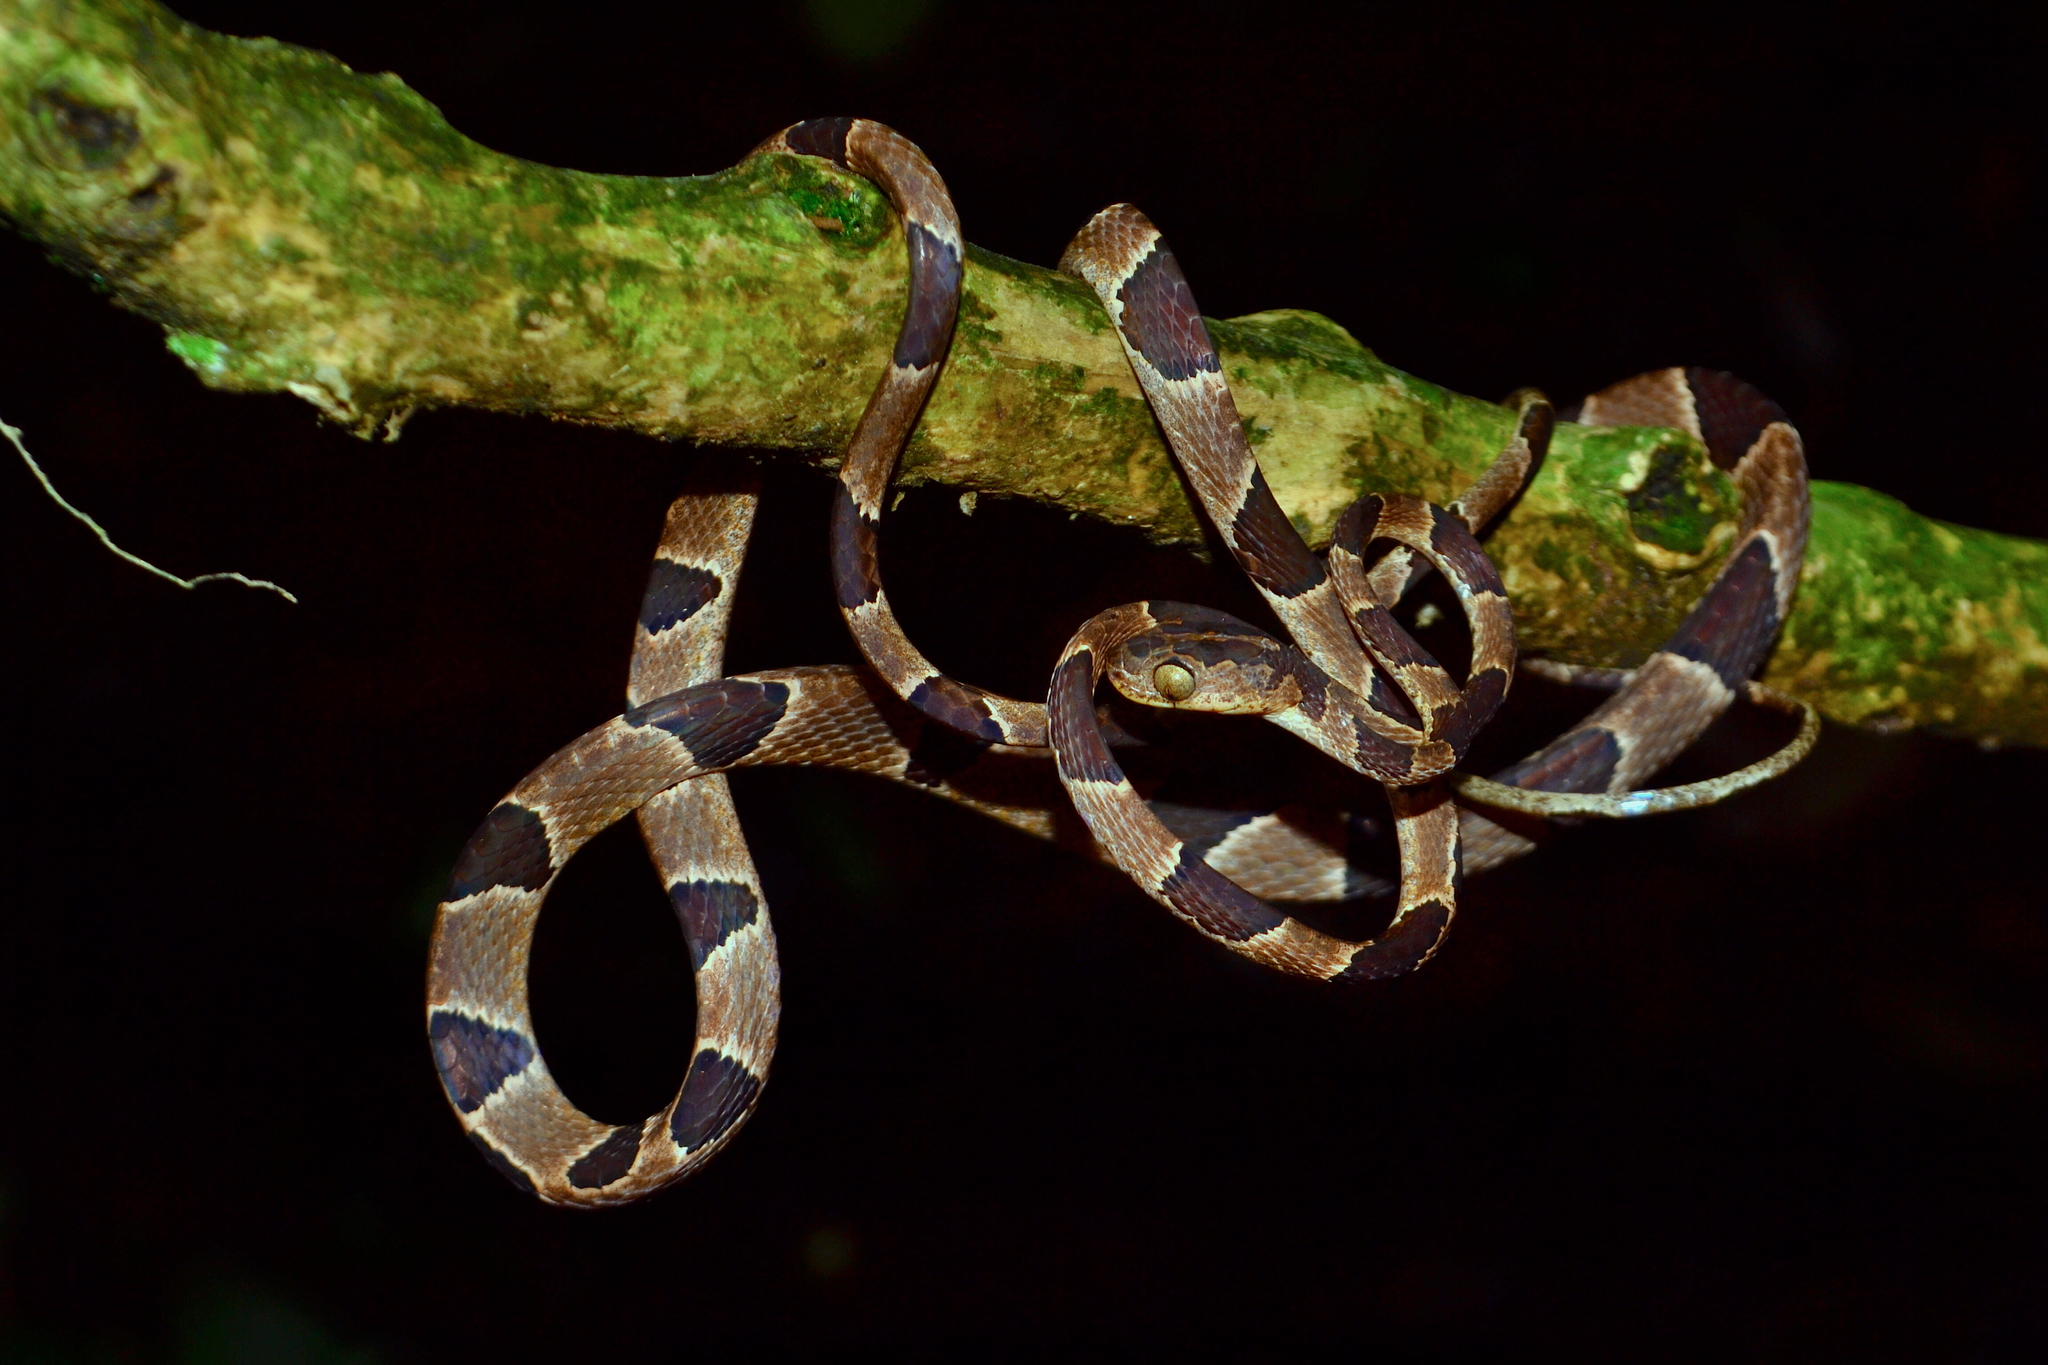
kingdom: Animalia
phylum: Chordata
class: Squamata
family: Colubridae
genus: Imantodes
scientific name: Imantodes cenchoa
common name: Blunthead tree snake
